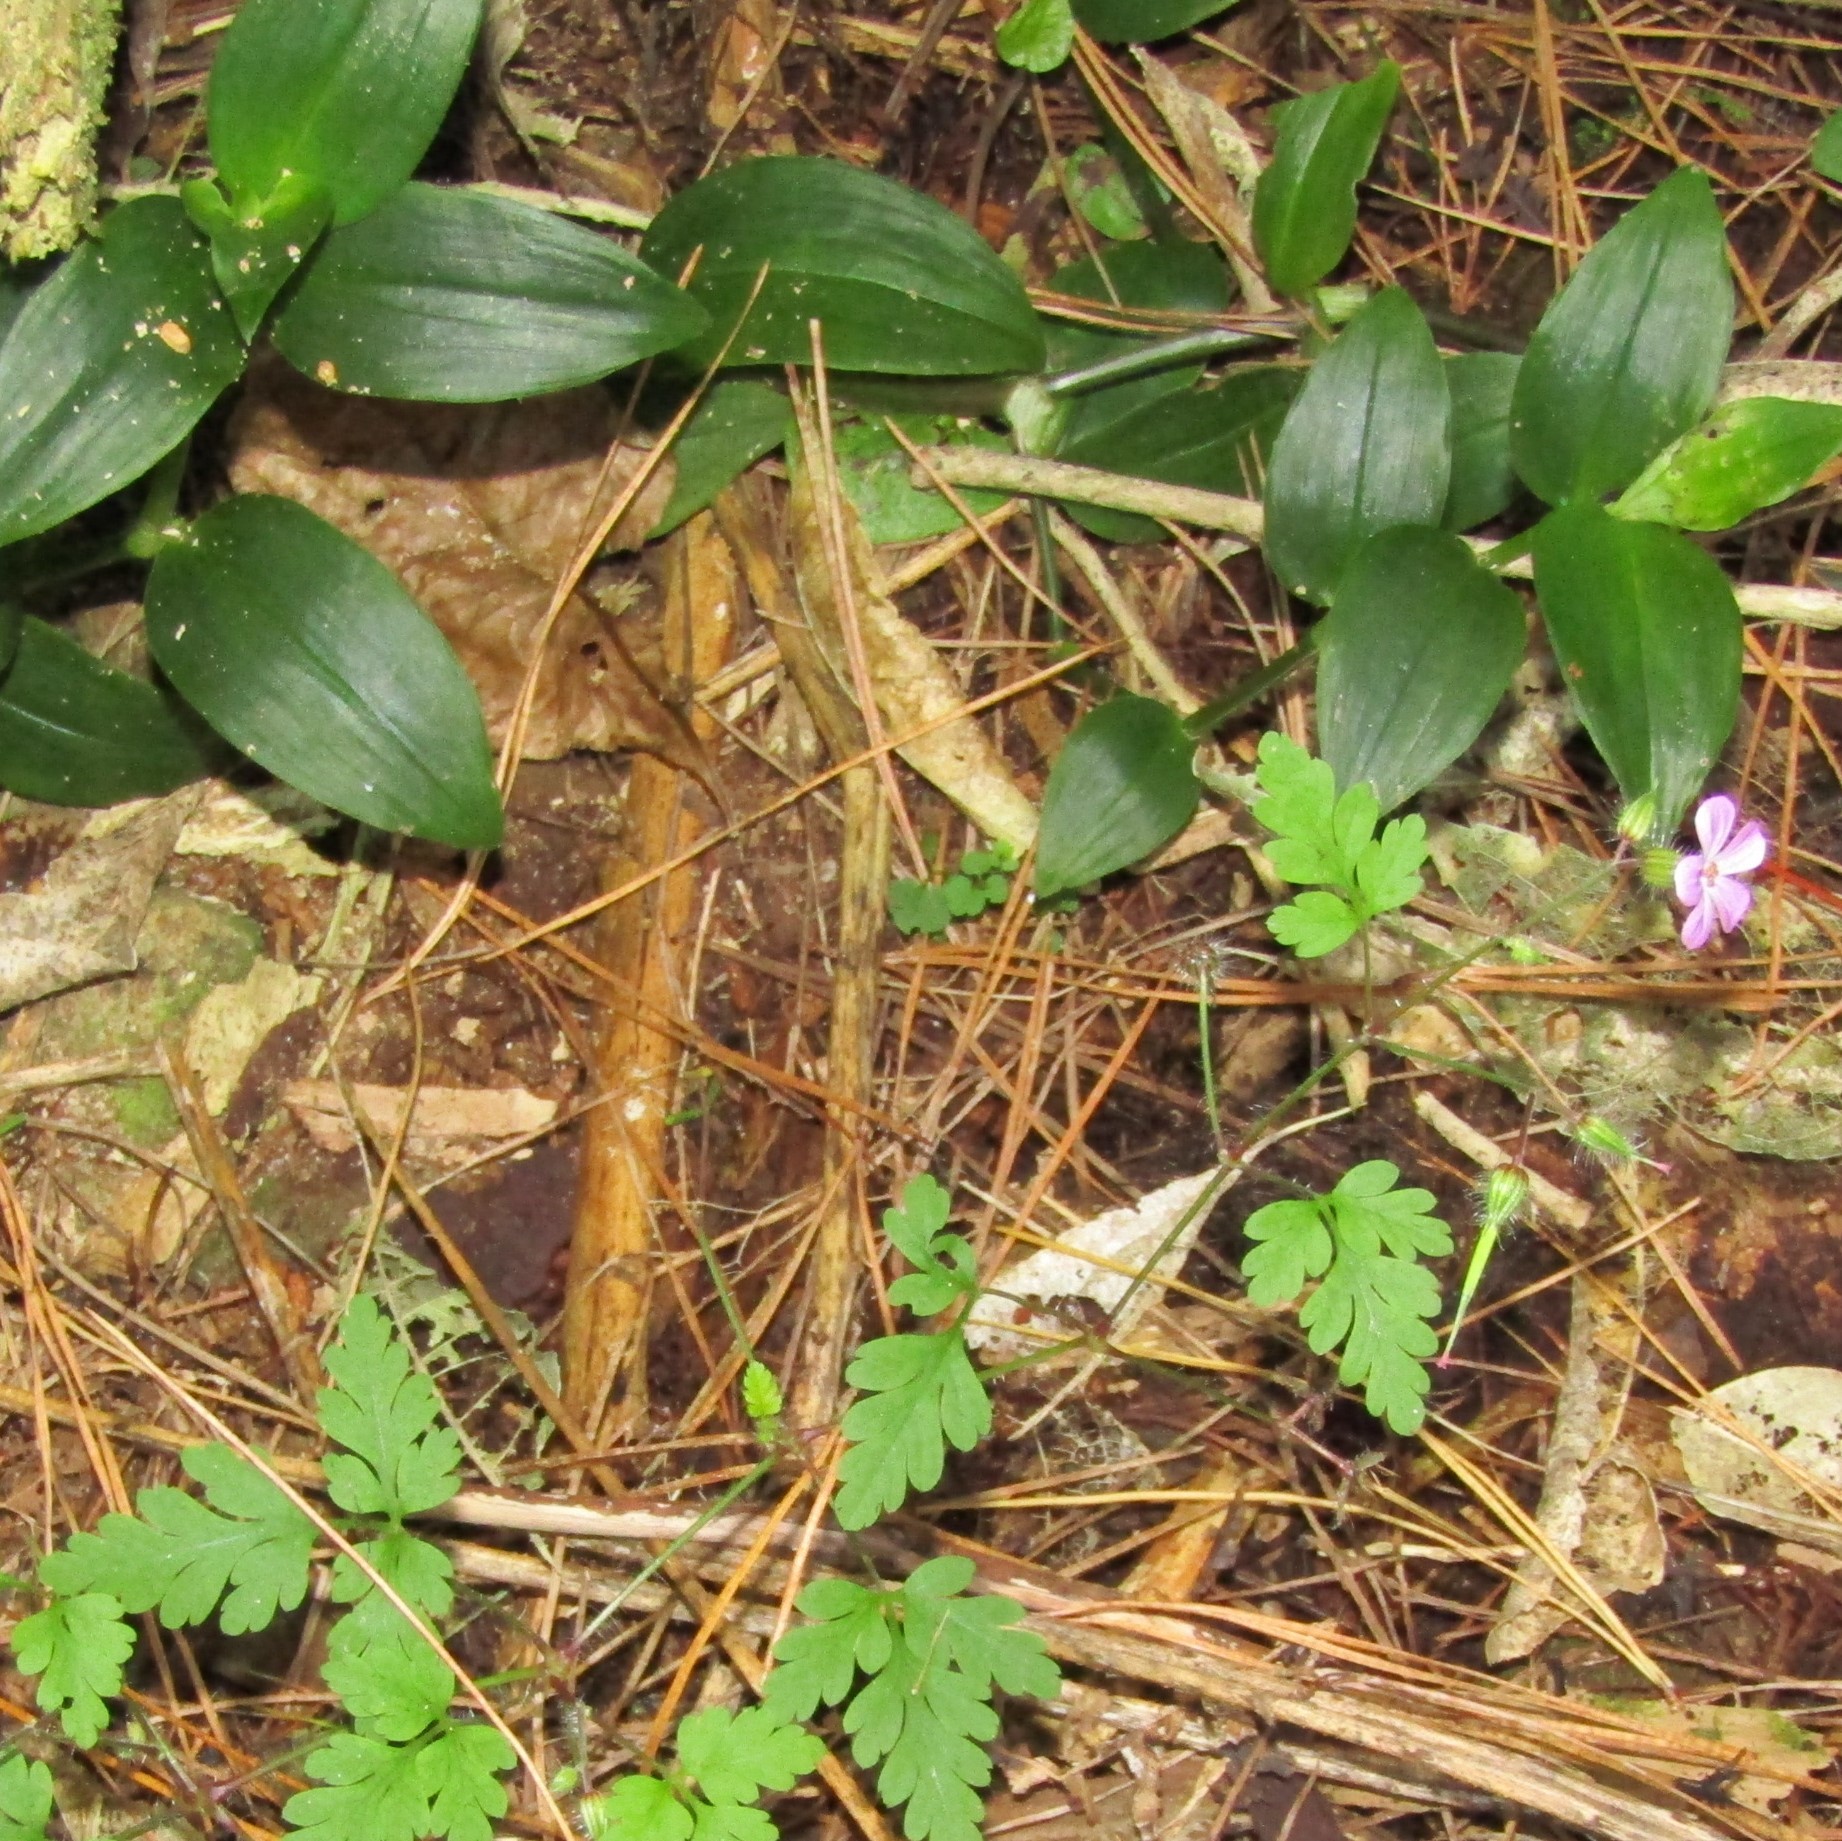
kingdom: Plantae
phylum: Tracheophyta
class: Liliopsida
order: Commelinales
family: Commelinaceae
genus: Tradescantia
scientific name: Tradescantia fluminensis
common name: Wandering-jew
